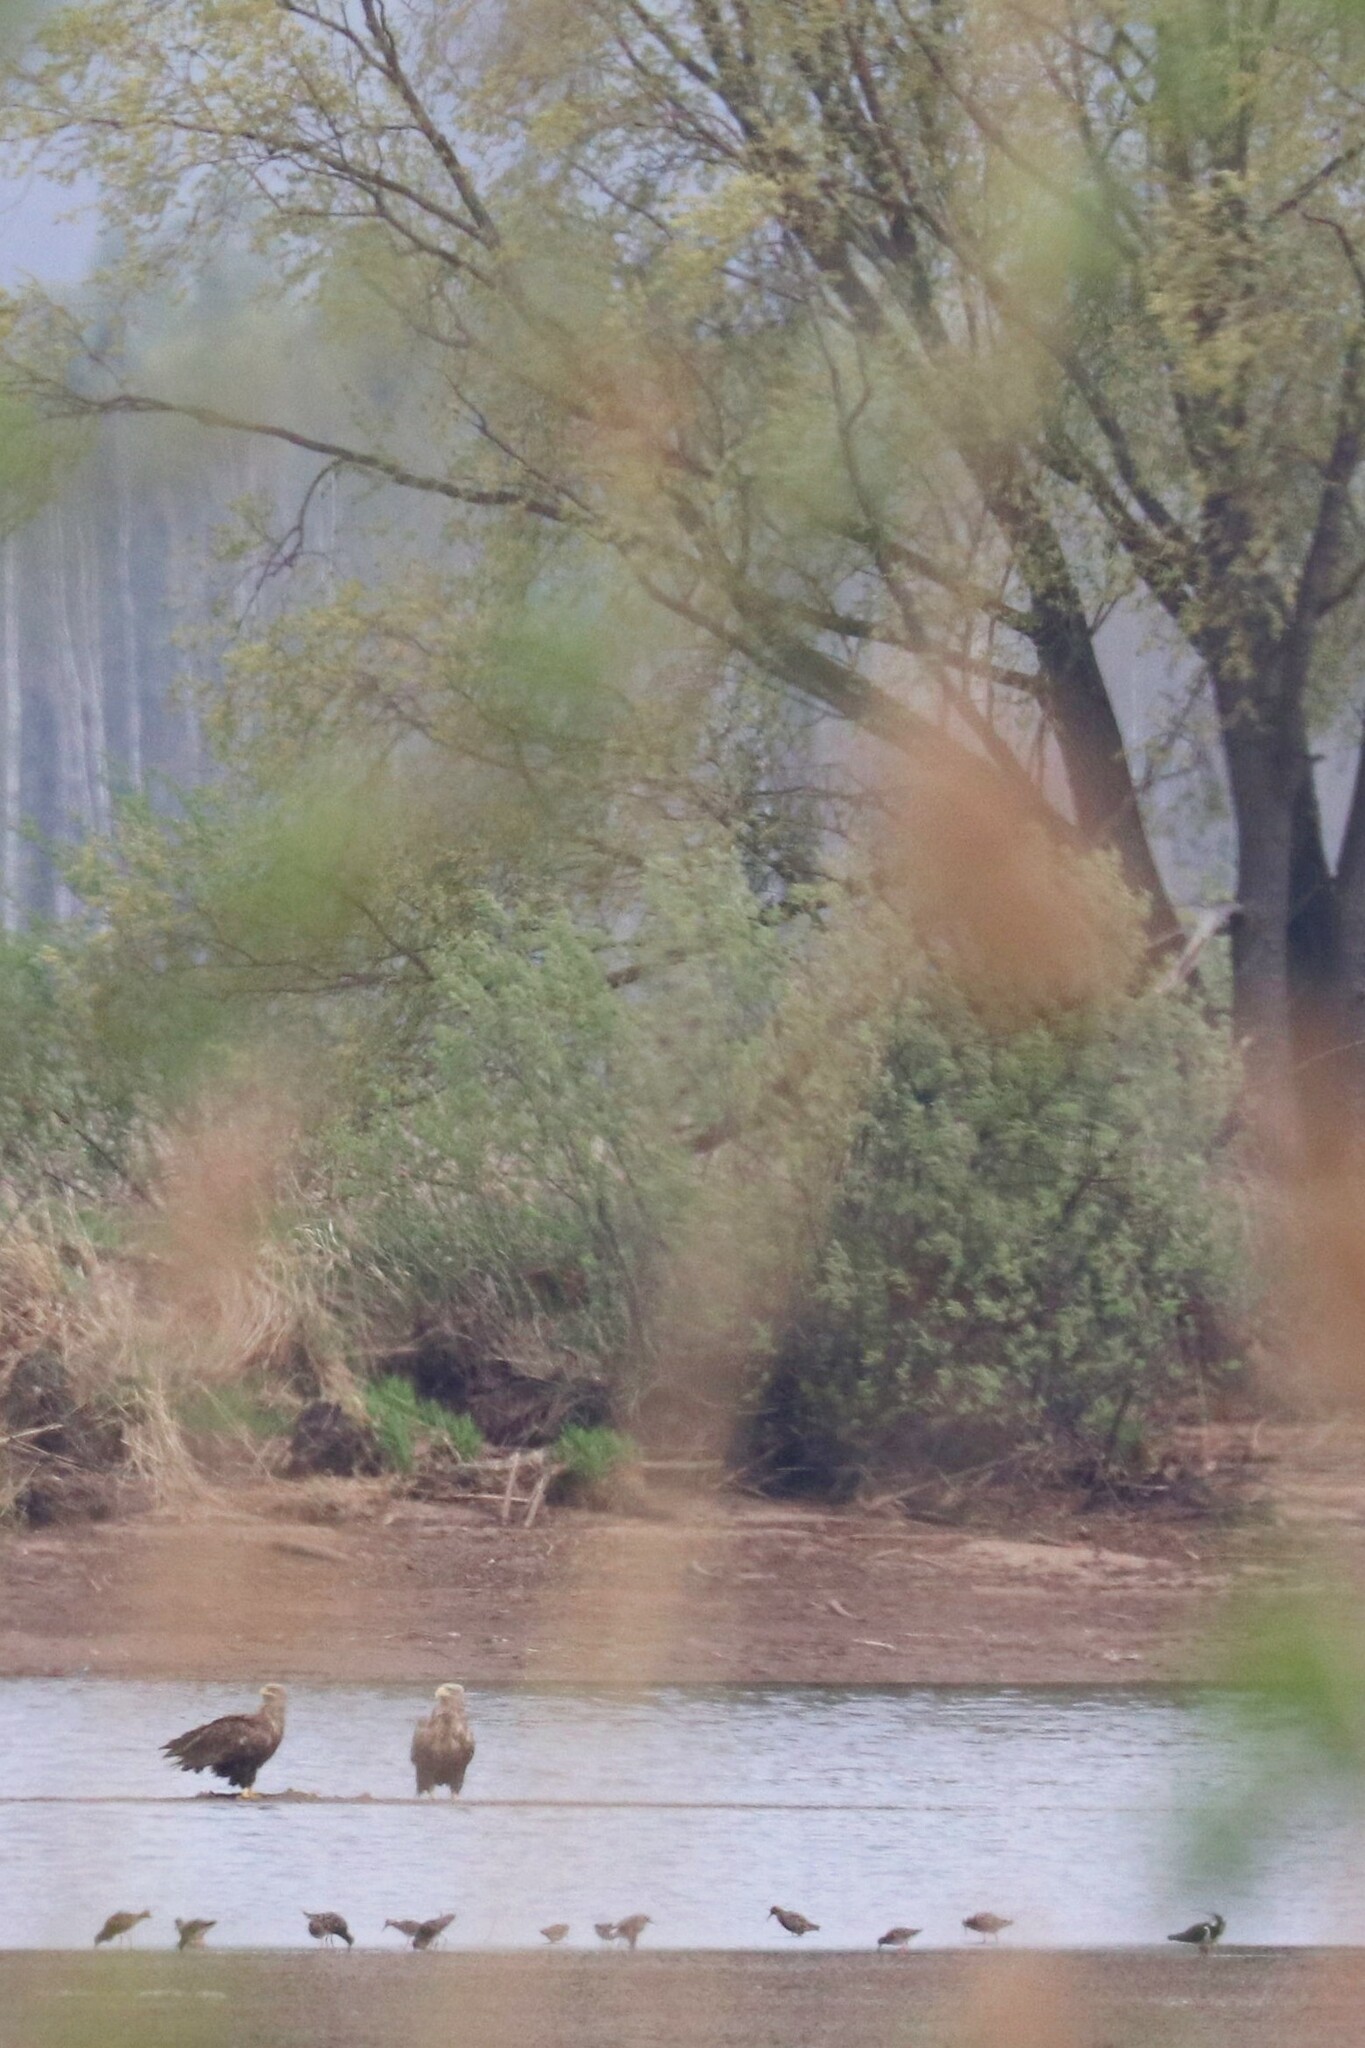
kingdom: Animalia
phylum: Chordata
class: Aves
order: Accipitriformes
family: Accipitridae
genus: Haliaeetus
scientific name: Haliaeetus albicilla
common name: White-tailed eagle
